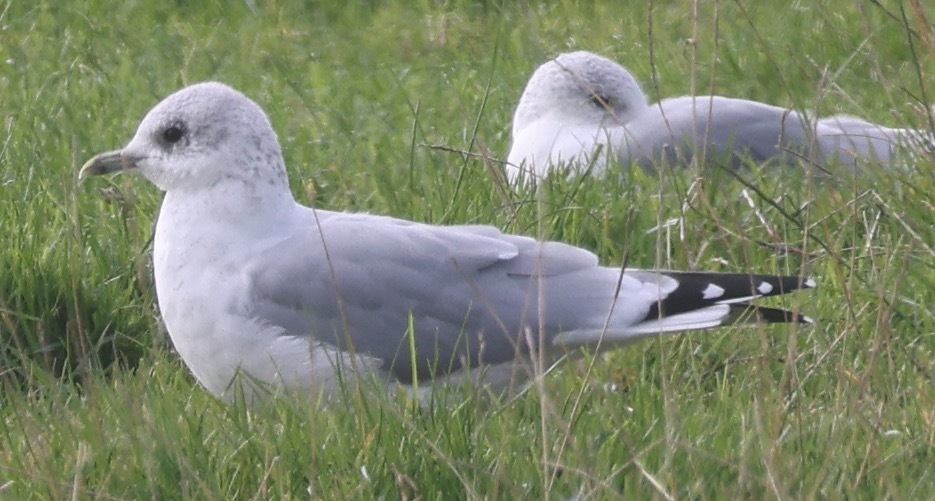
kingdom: Animalia
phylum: Chordata
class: Aves
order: Charadriiformes
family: Laridae
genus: Larus
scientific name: Larus canus
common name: Mew gull
